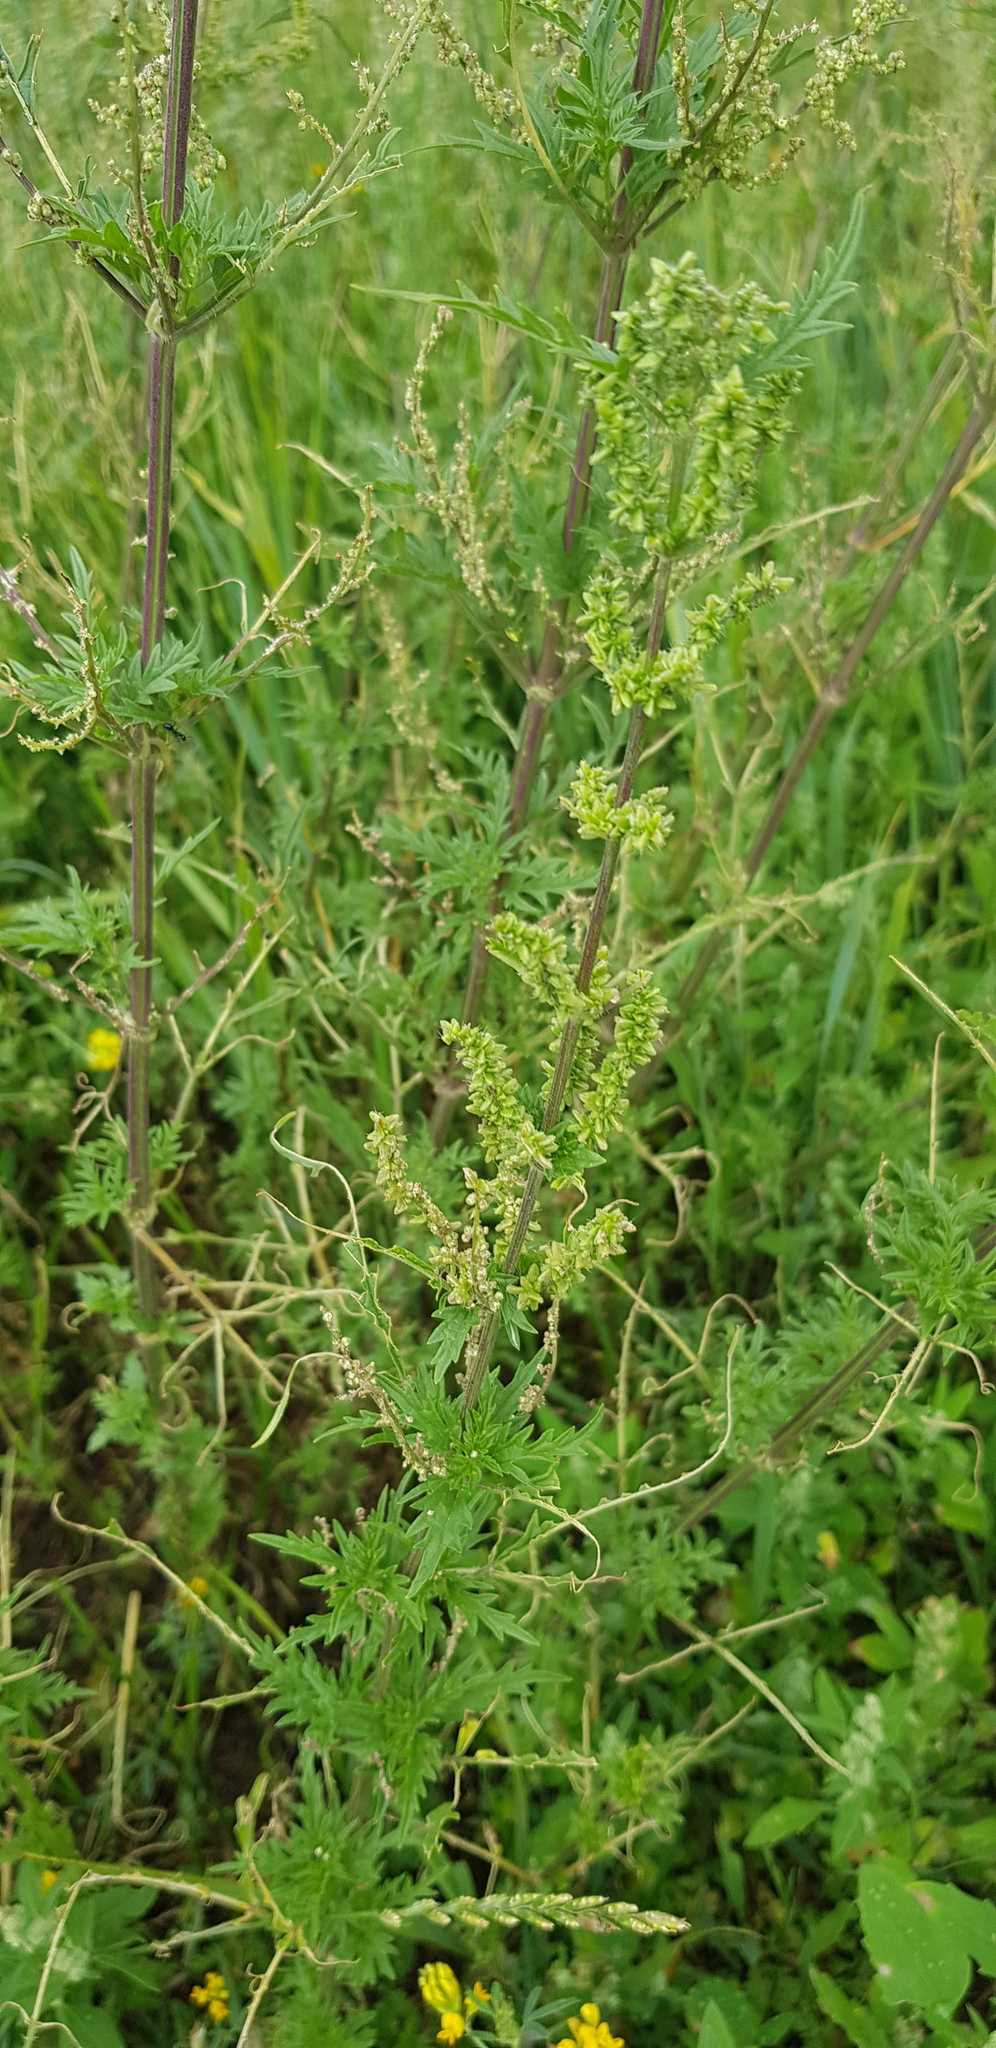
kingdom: Plantae
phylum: Tracheophyta
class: Magnoliopsida
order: Rosales
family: Urticaceae
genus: Urtica
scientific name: Urtica cannabina
